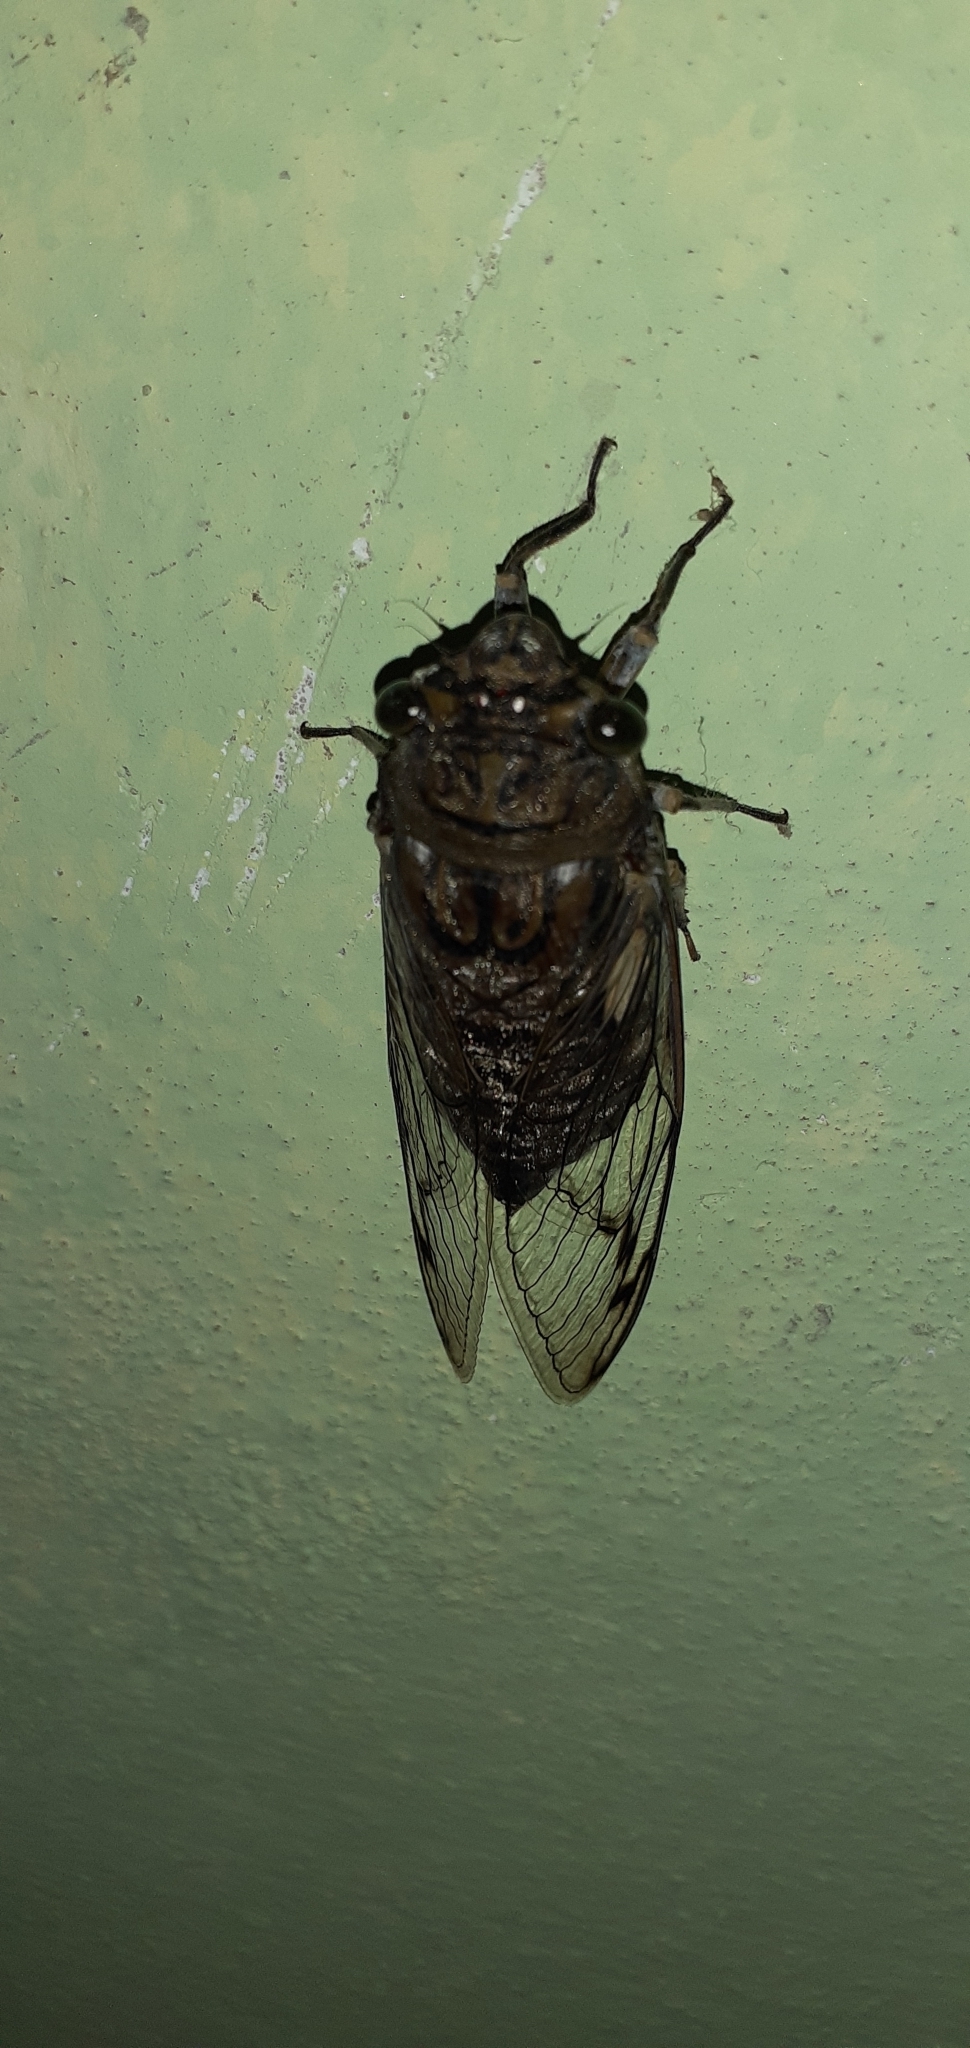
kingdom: Animalia
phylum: Arthropoda
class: Insecta
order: Hemiptera
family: Cicadidae
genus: Quesada
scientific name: Quesada gigas
